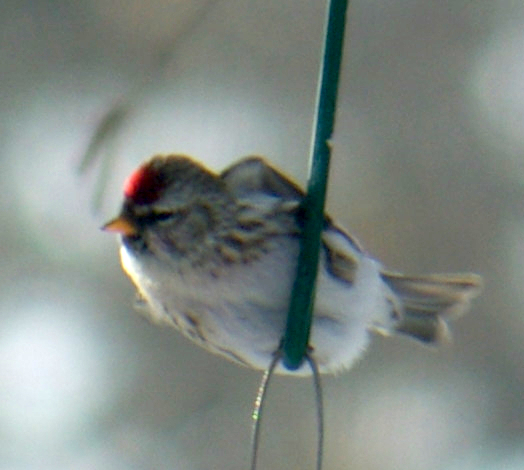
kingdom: Animalia
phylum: Chordata
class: Aves
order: Passeriformes
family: Fringillidae
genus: Acanthis
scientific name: Acanthis flammea
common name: Common redpoll
